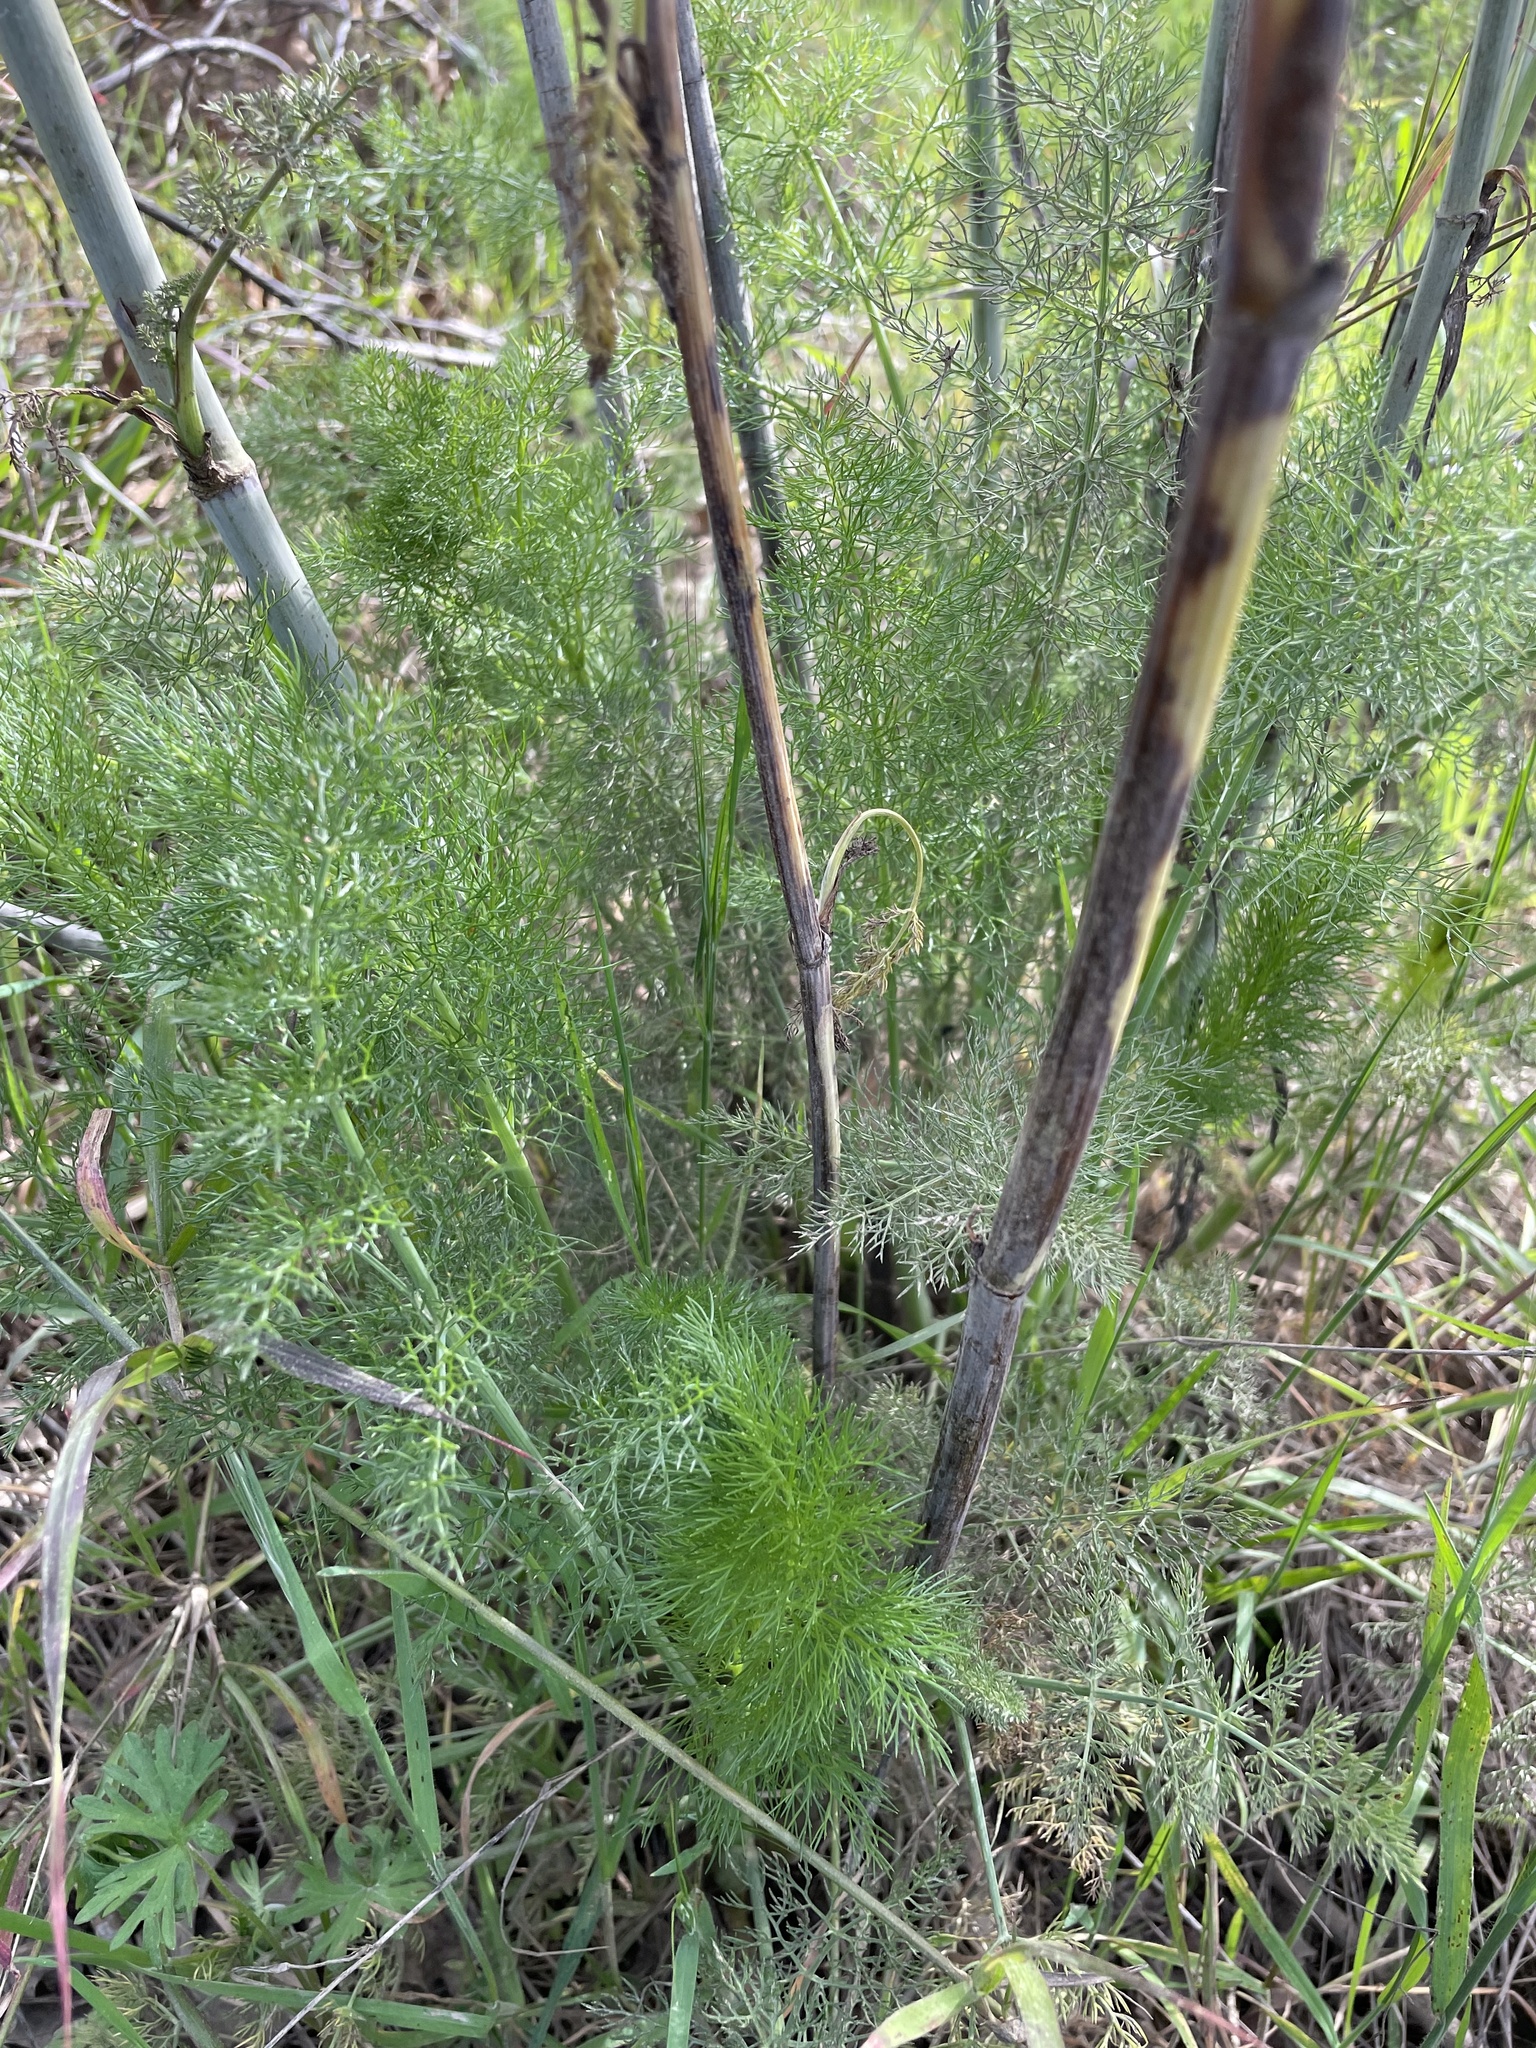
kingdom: Plantae
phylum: Tracheophyta
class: Magnoliopsida
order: Apiales
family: Apiaceae
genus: Foeniculum
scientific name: Foeniculum vulgare
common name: Fennel
